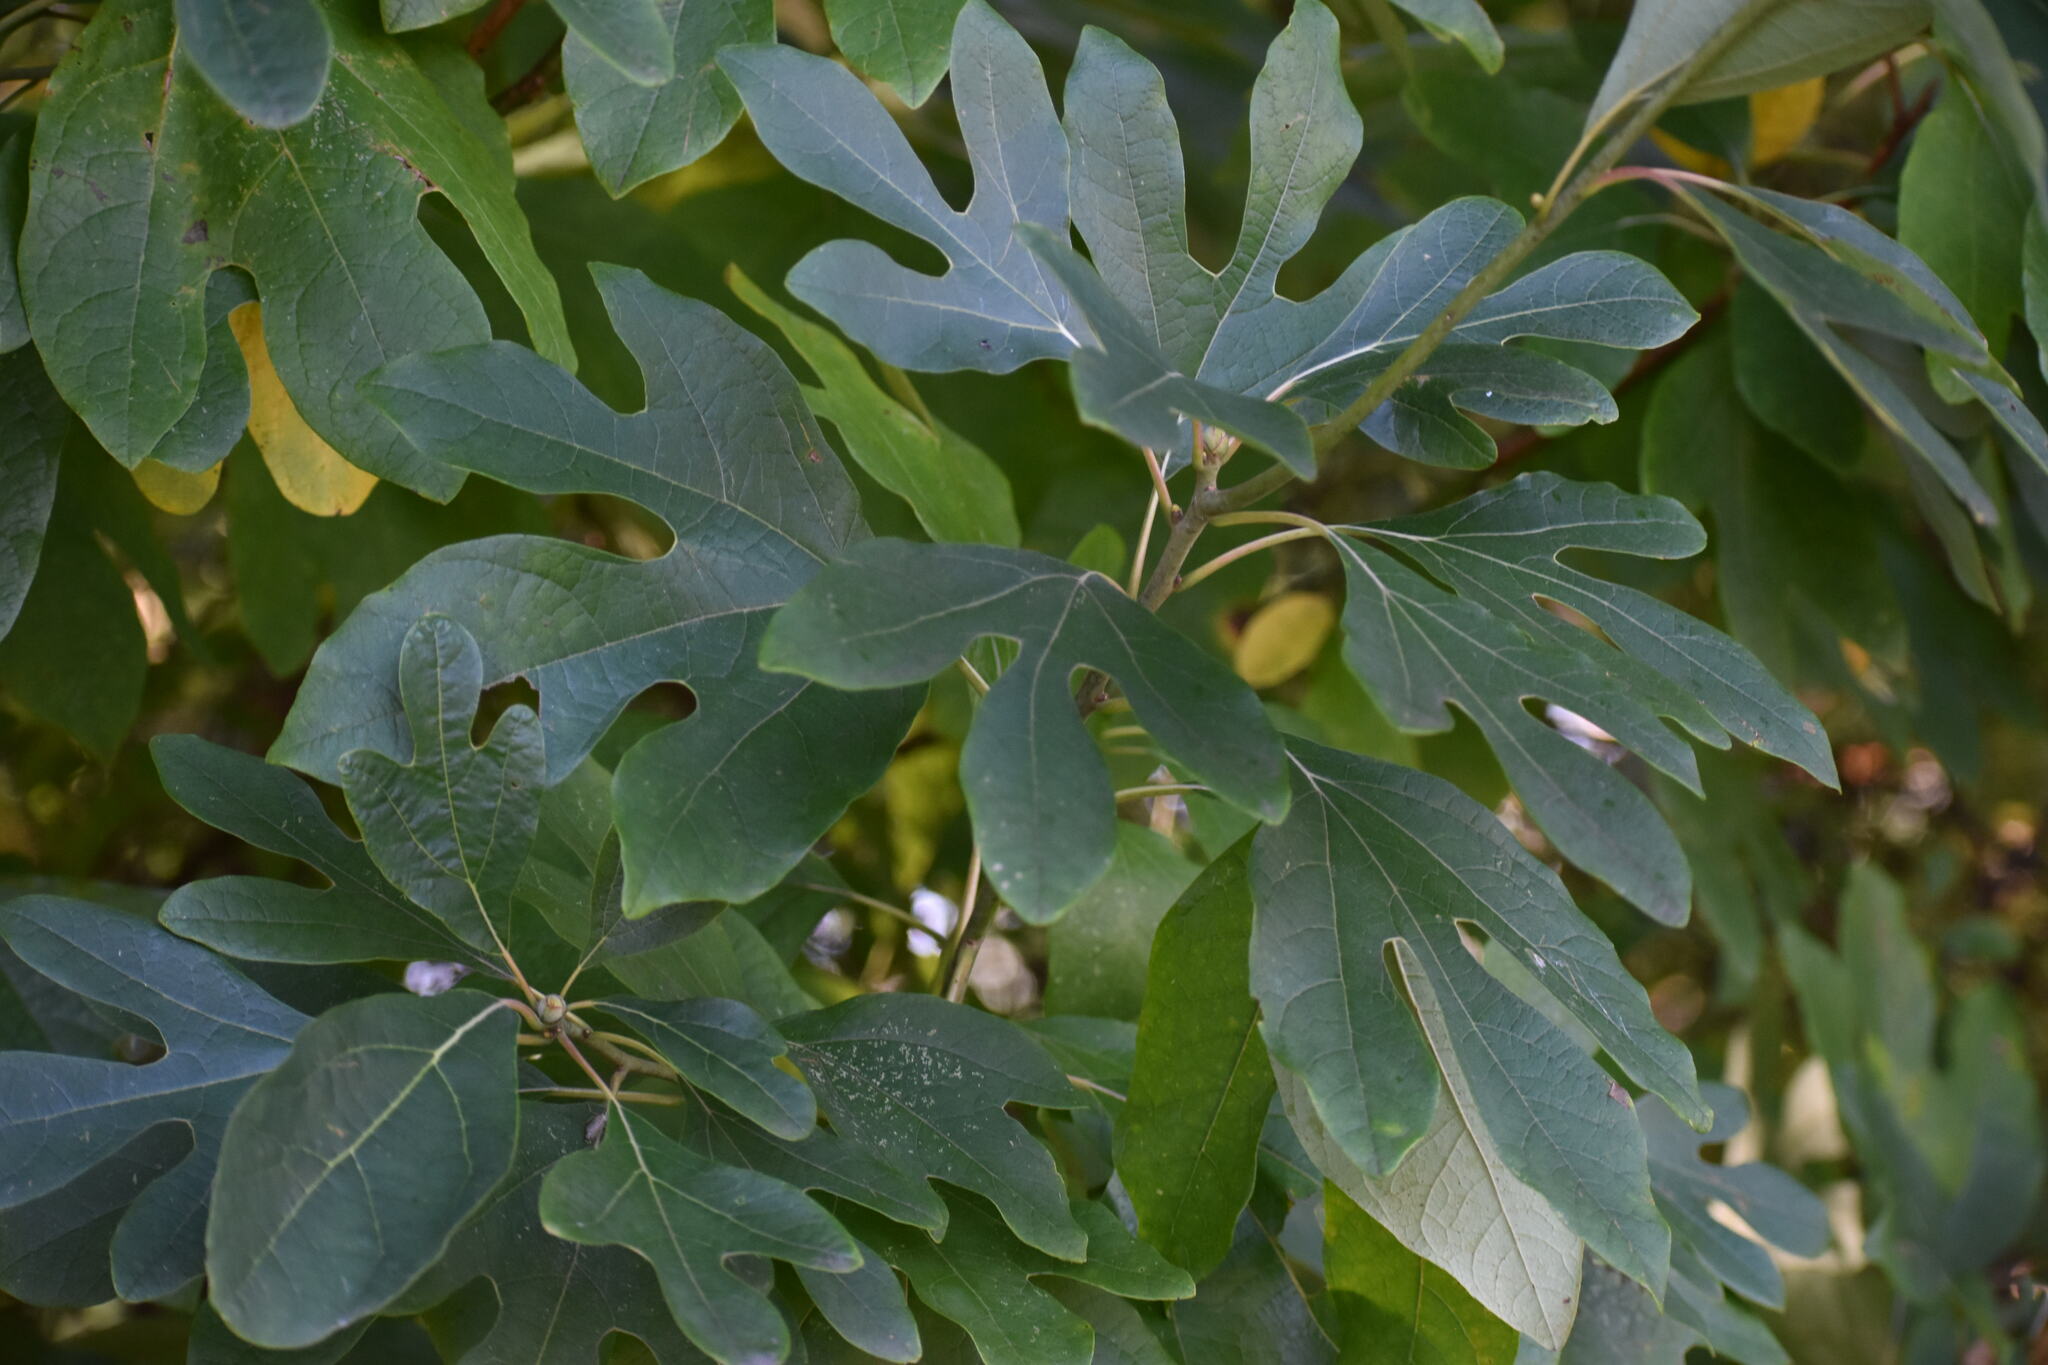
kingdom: Plantae
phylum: Tracheophyta
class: Magnoliopsida
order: Laurales
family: Lauraceae
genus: Sassafras
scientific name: Sassafras albidum
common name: Sassafras
